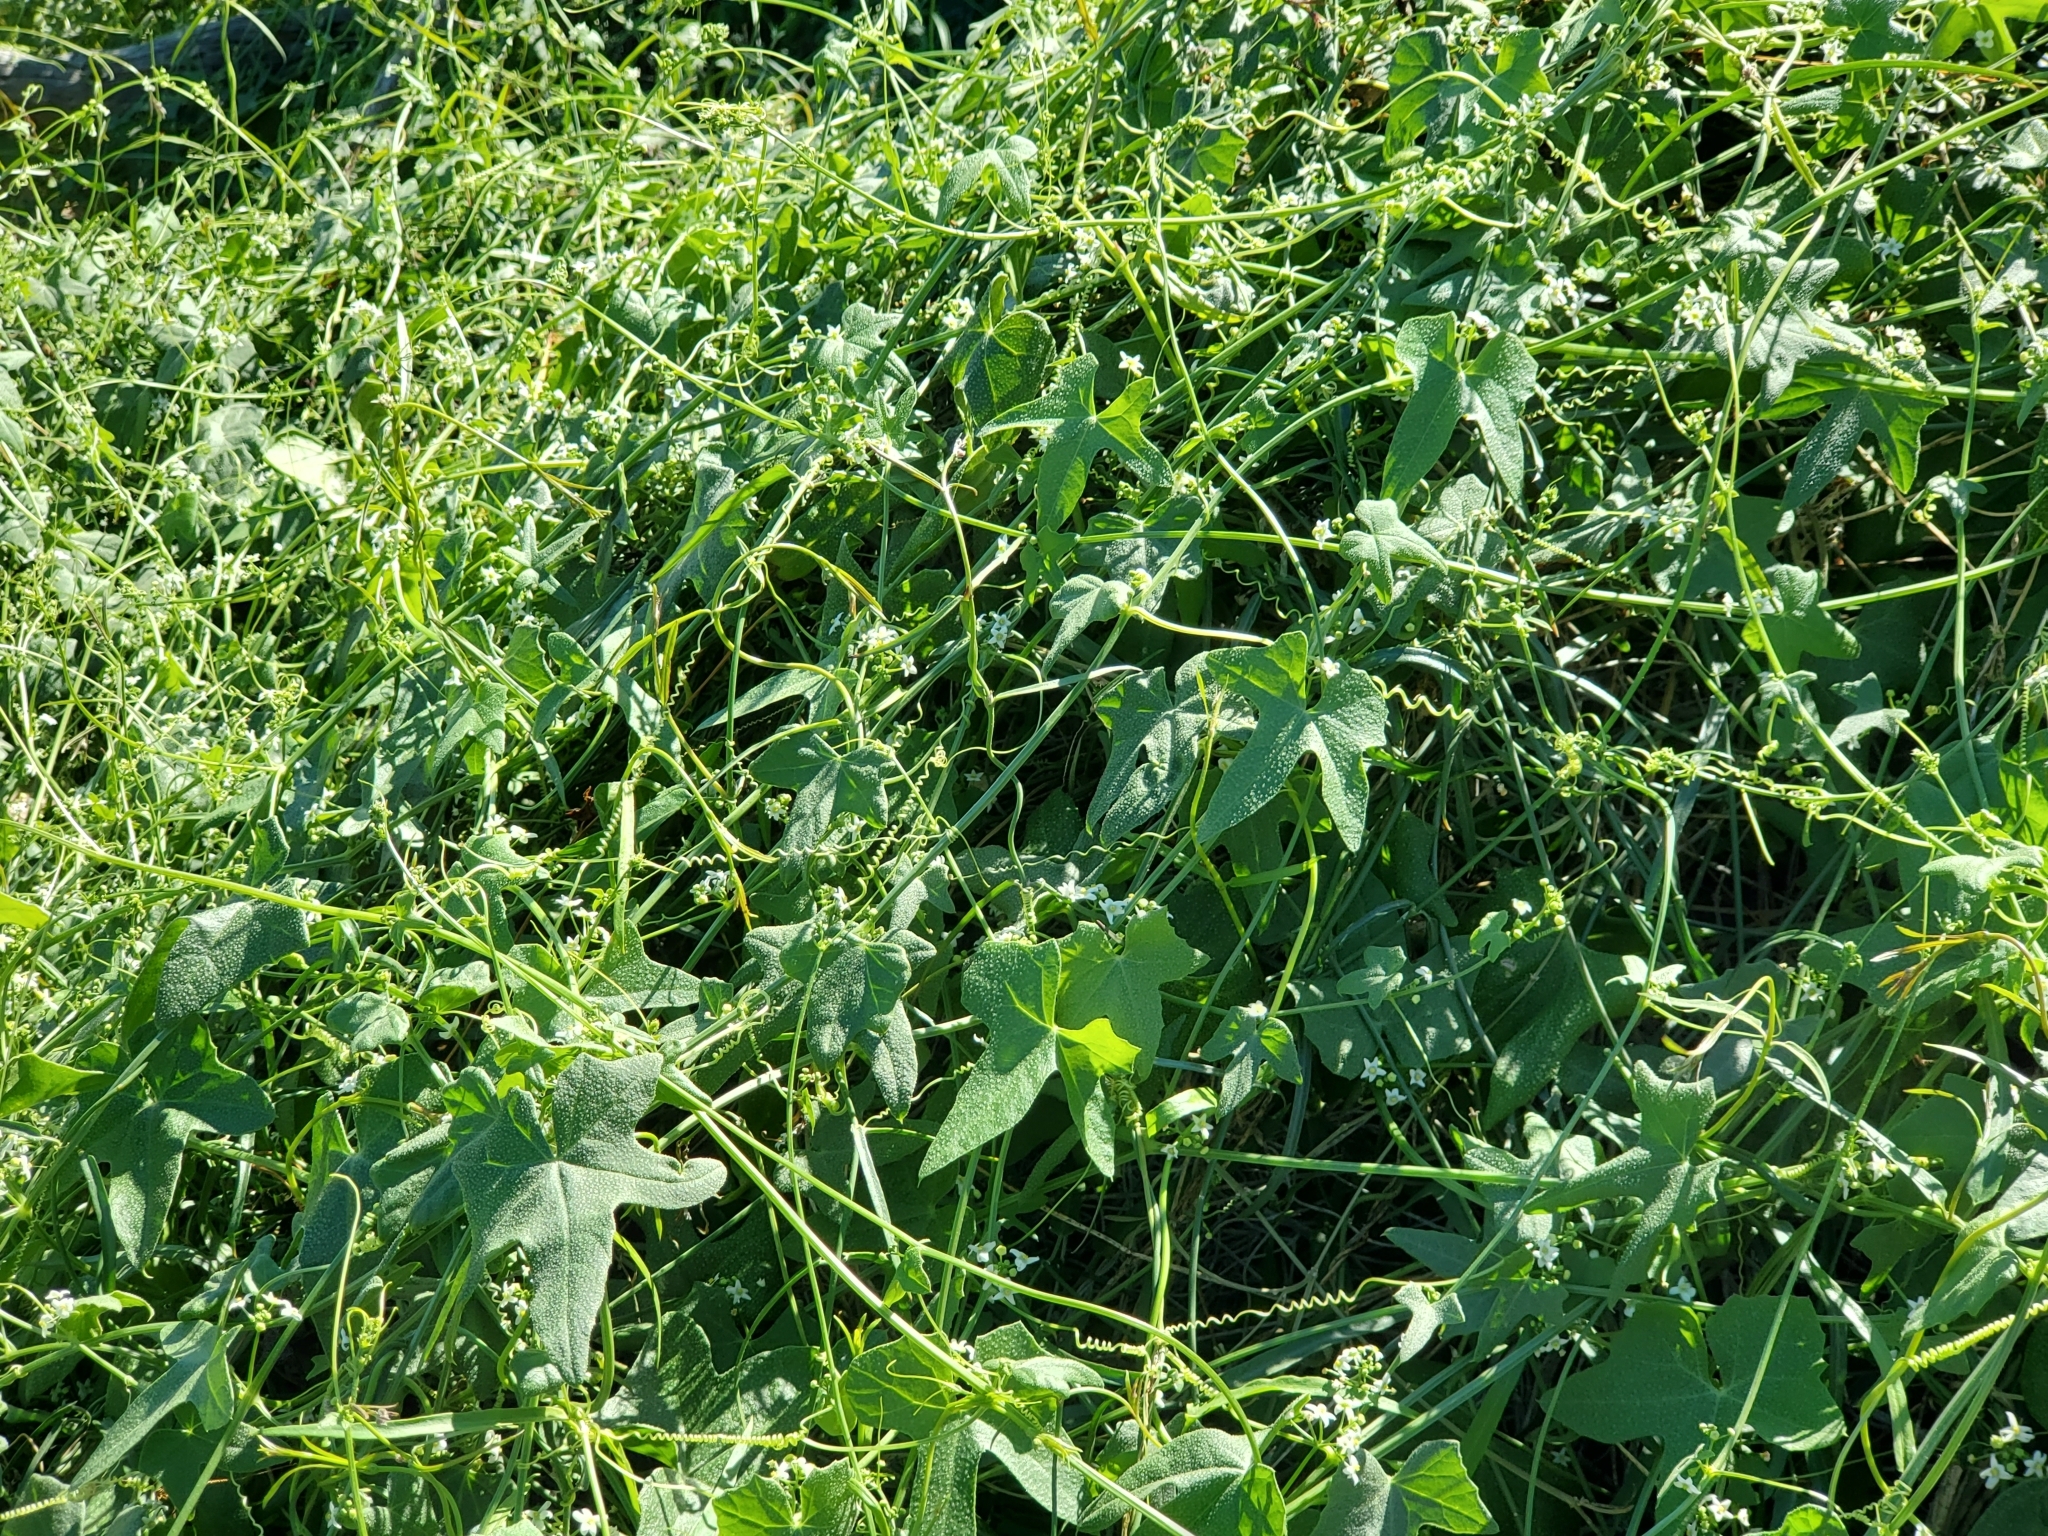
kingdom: Plantae
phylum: Tracheophyta
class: Magnoliopsida
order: Cucurbitales
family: Cucurbitaceae
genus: Echinopepon
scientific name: Echinopepon bigelovii
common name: Desert starvine
